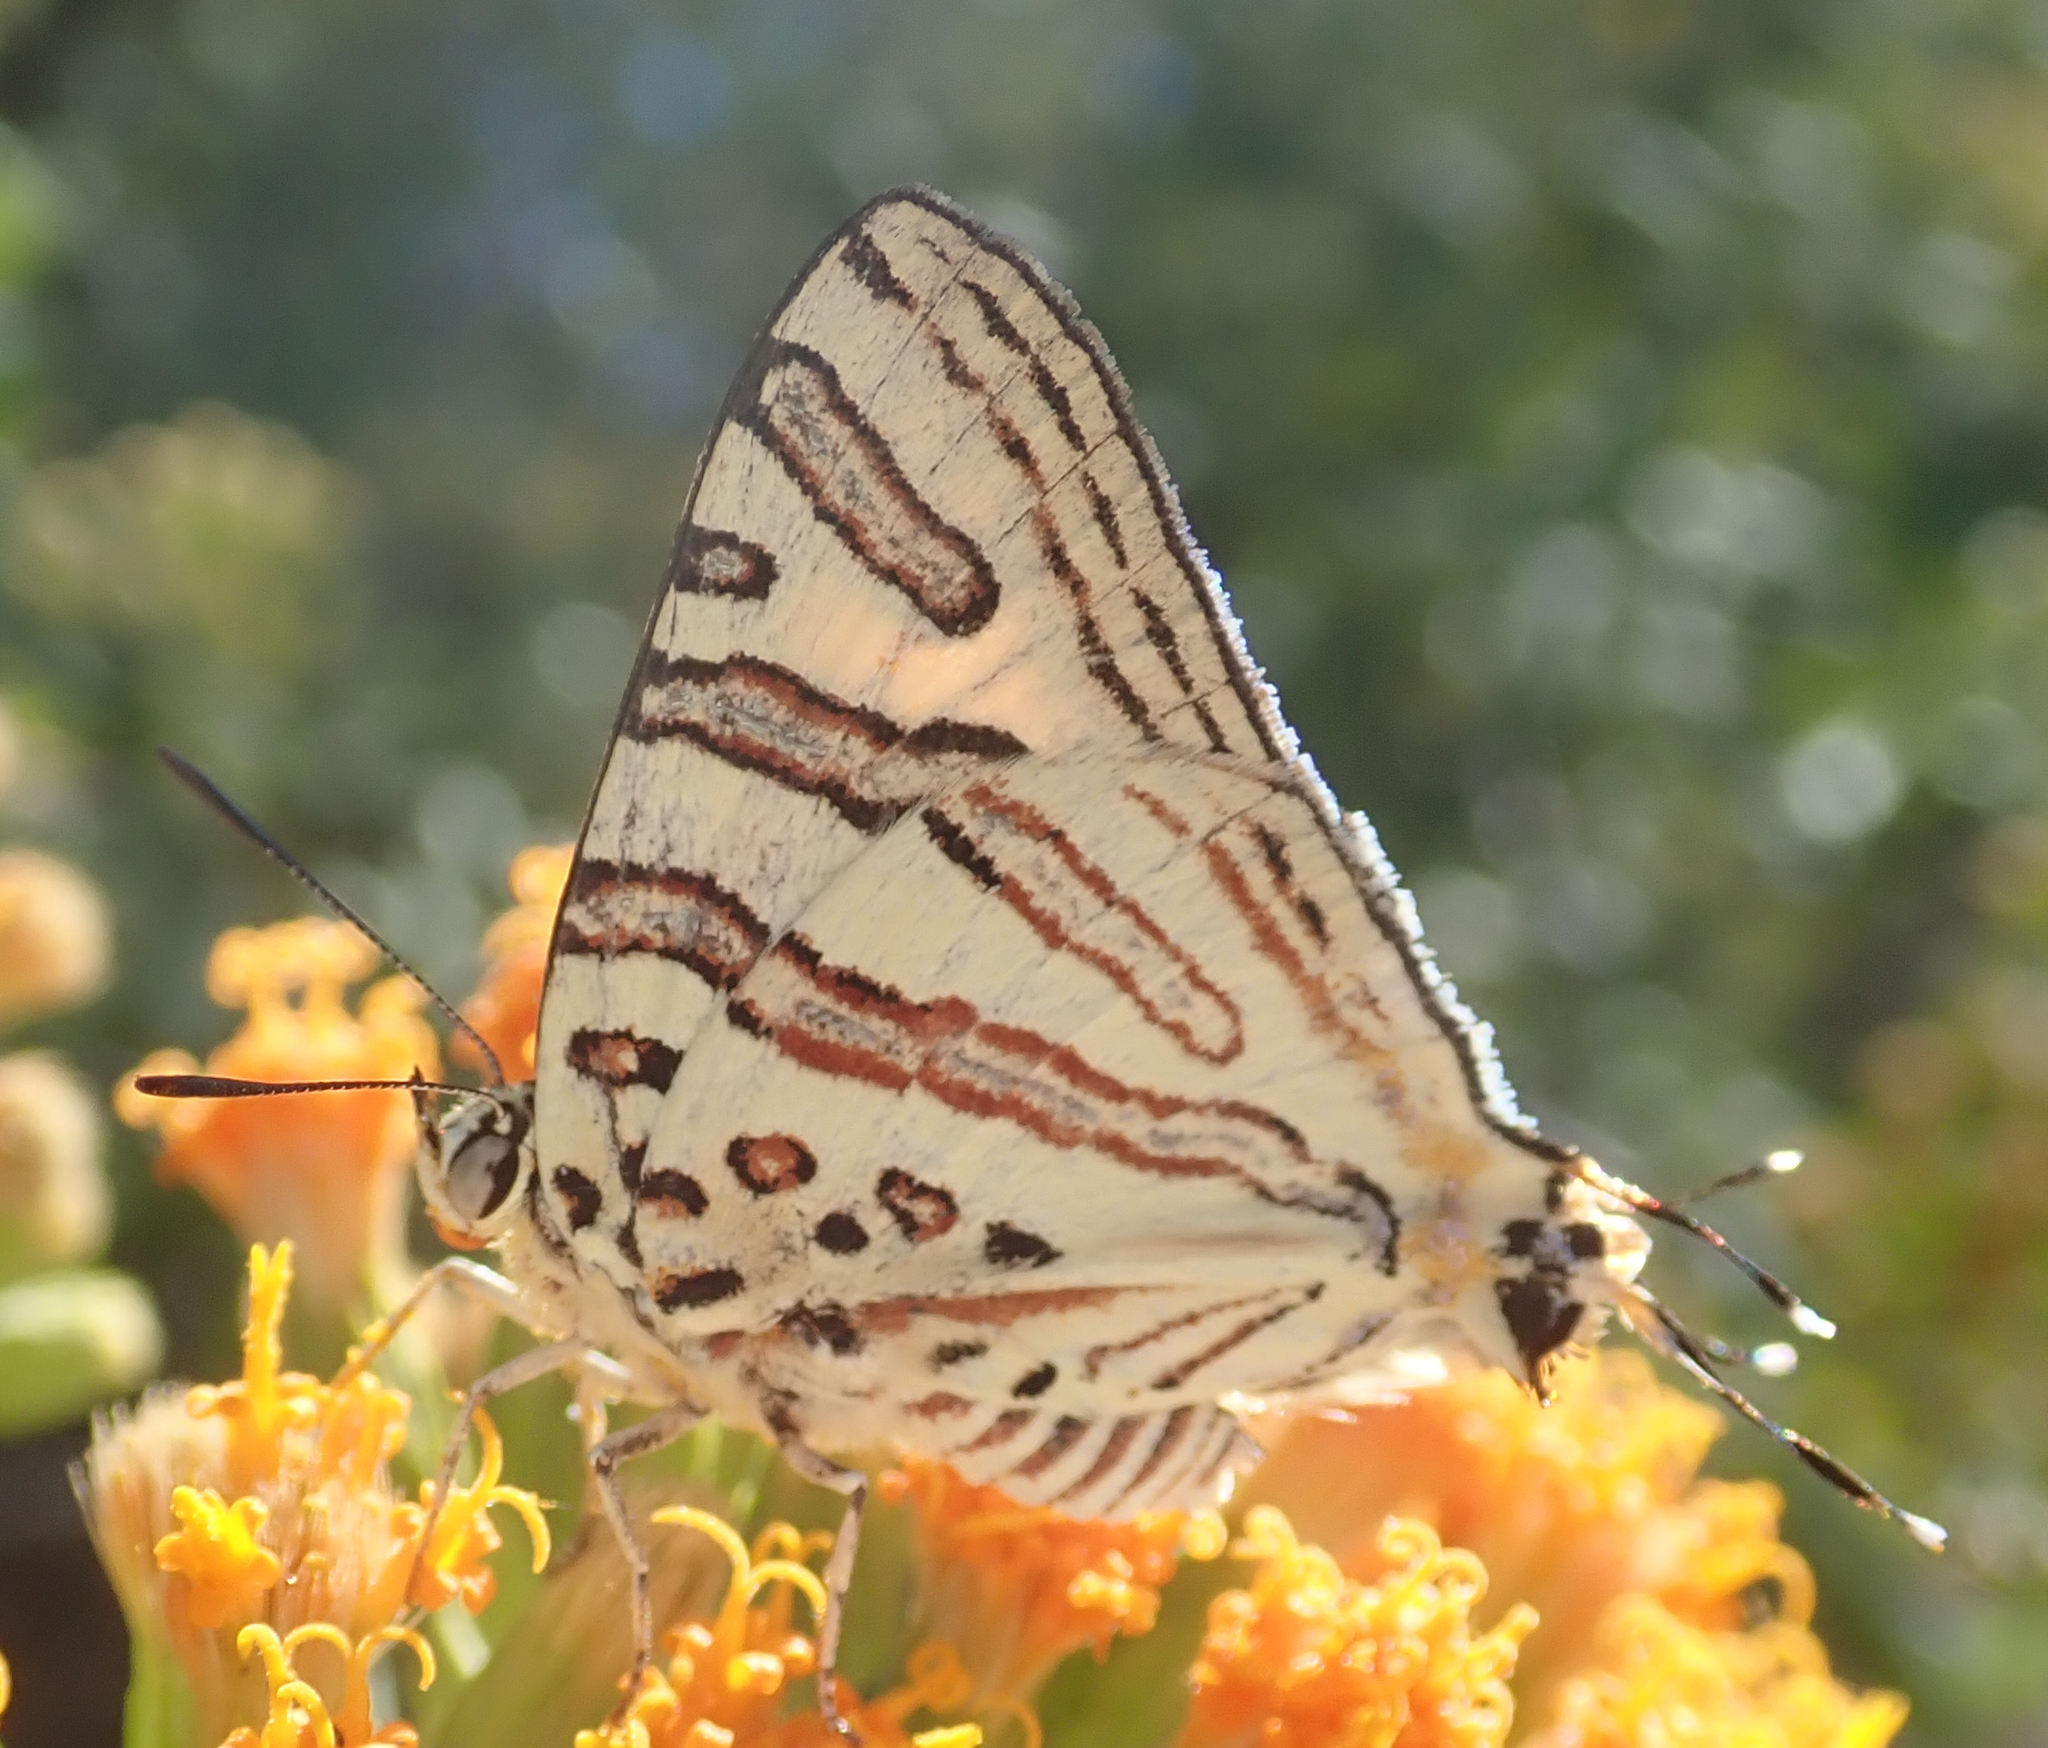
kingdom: Animalia
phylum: Arthropoda
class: Insecta
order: Lepidoptera
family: Lycaenidae
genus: Spindasis
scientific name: Spindasis natalensis
